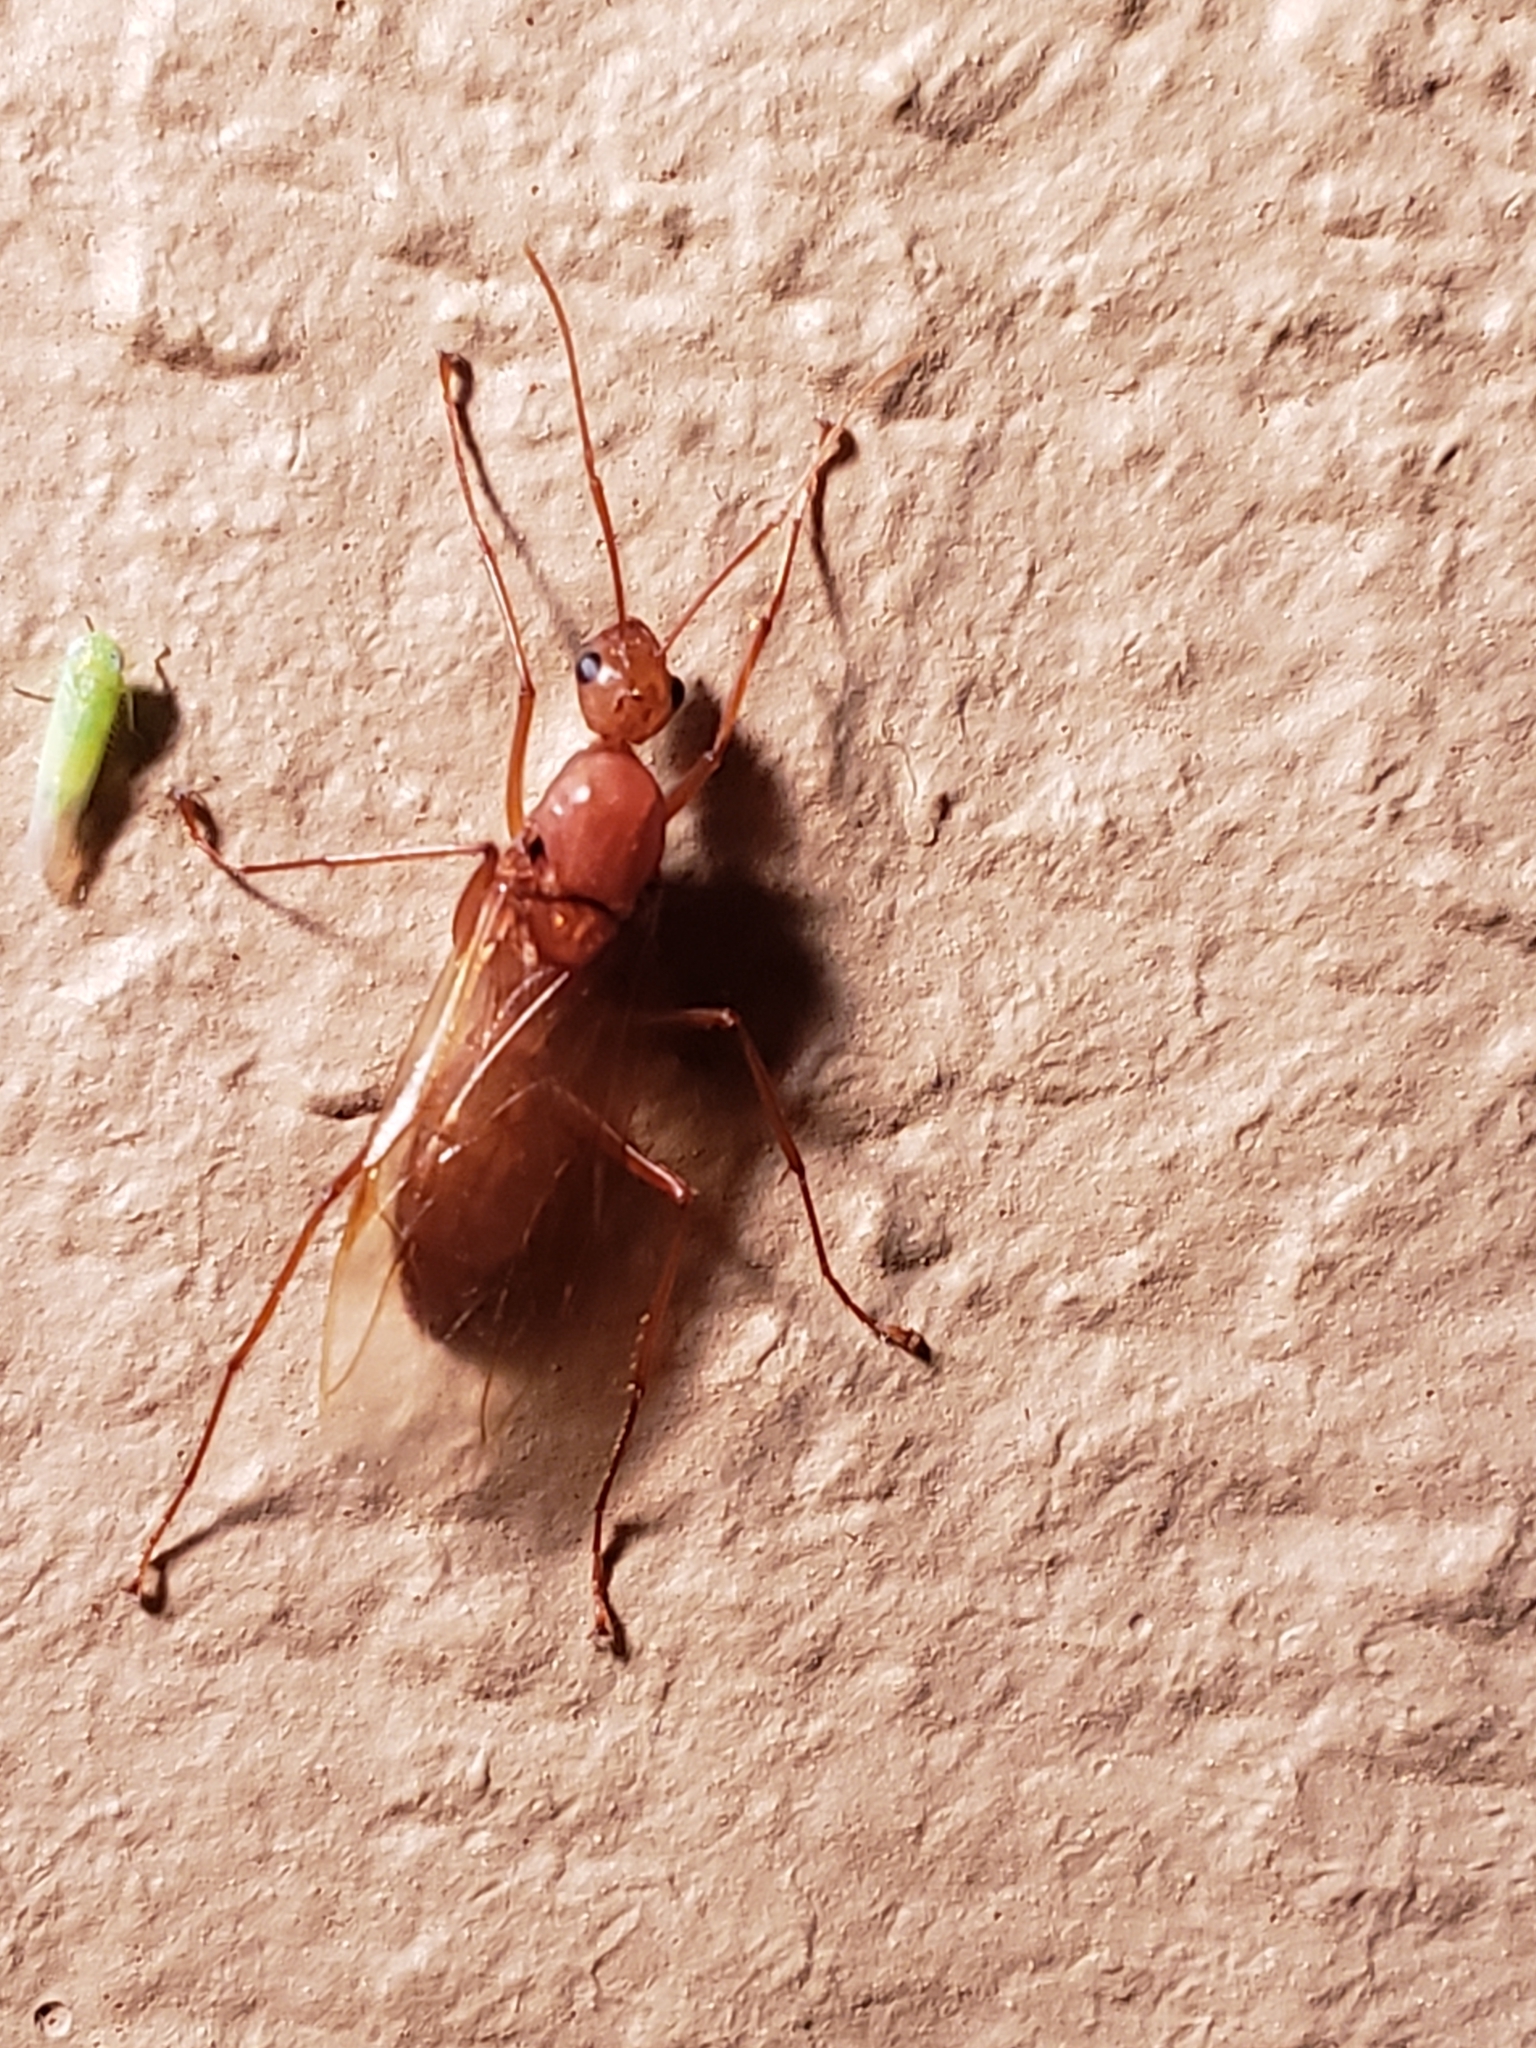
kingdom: Animalia
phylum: Arthropoda
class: Insecta
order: Hymenoptera
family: Formicidae
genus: Camponotus
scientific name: Camponotus castaneus
